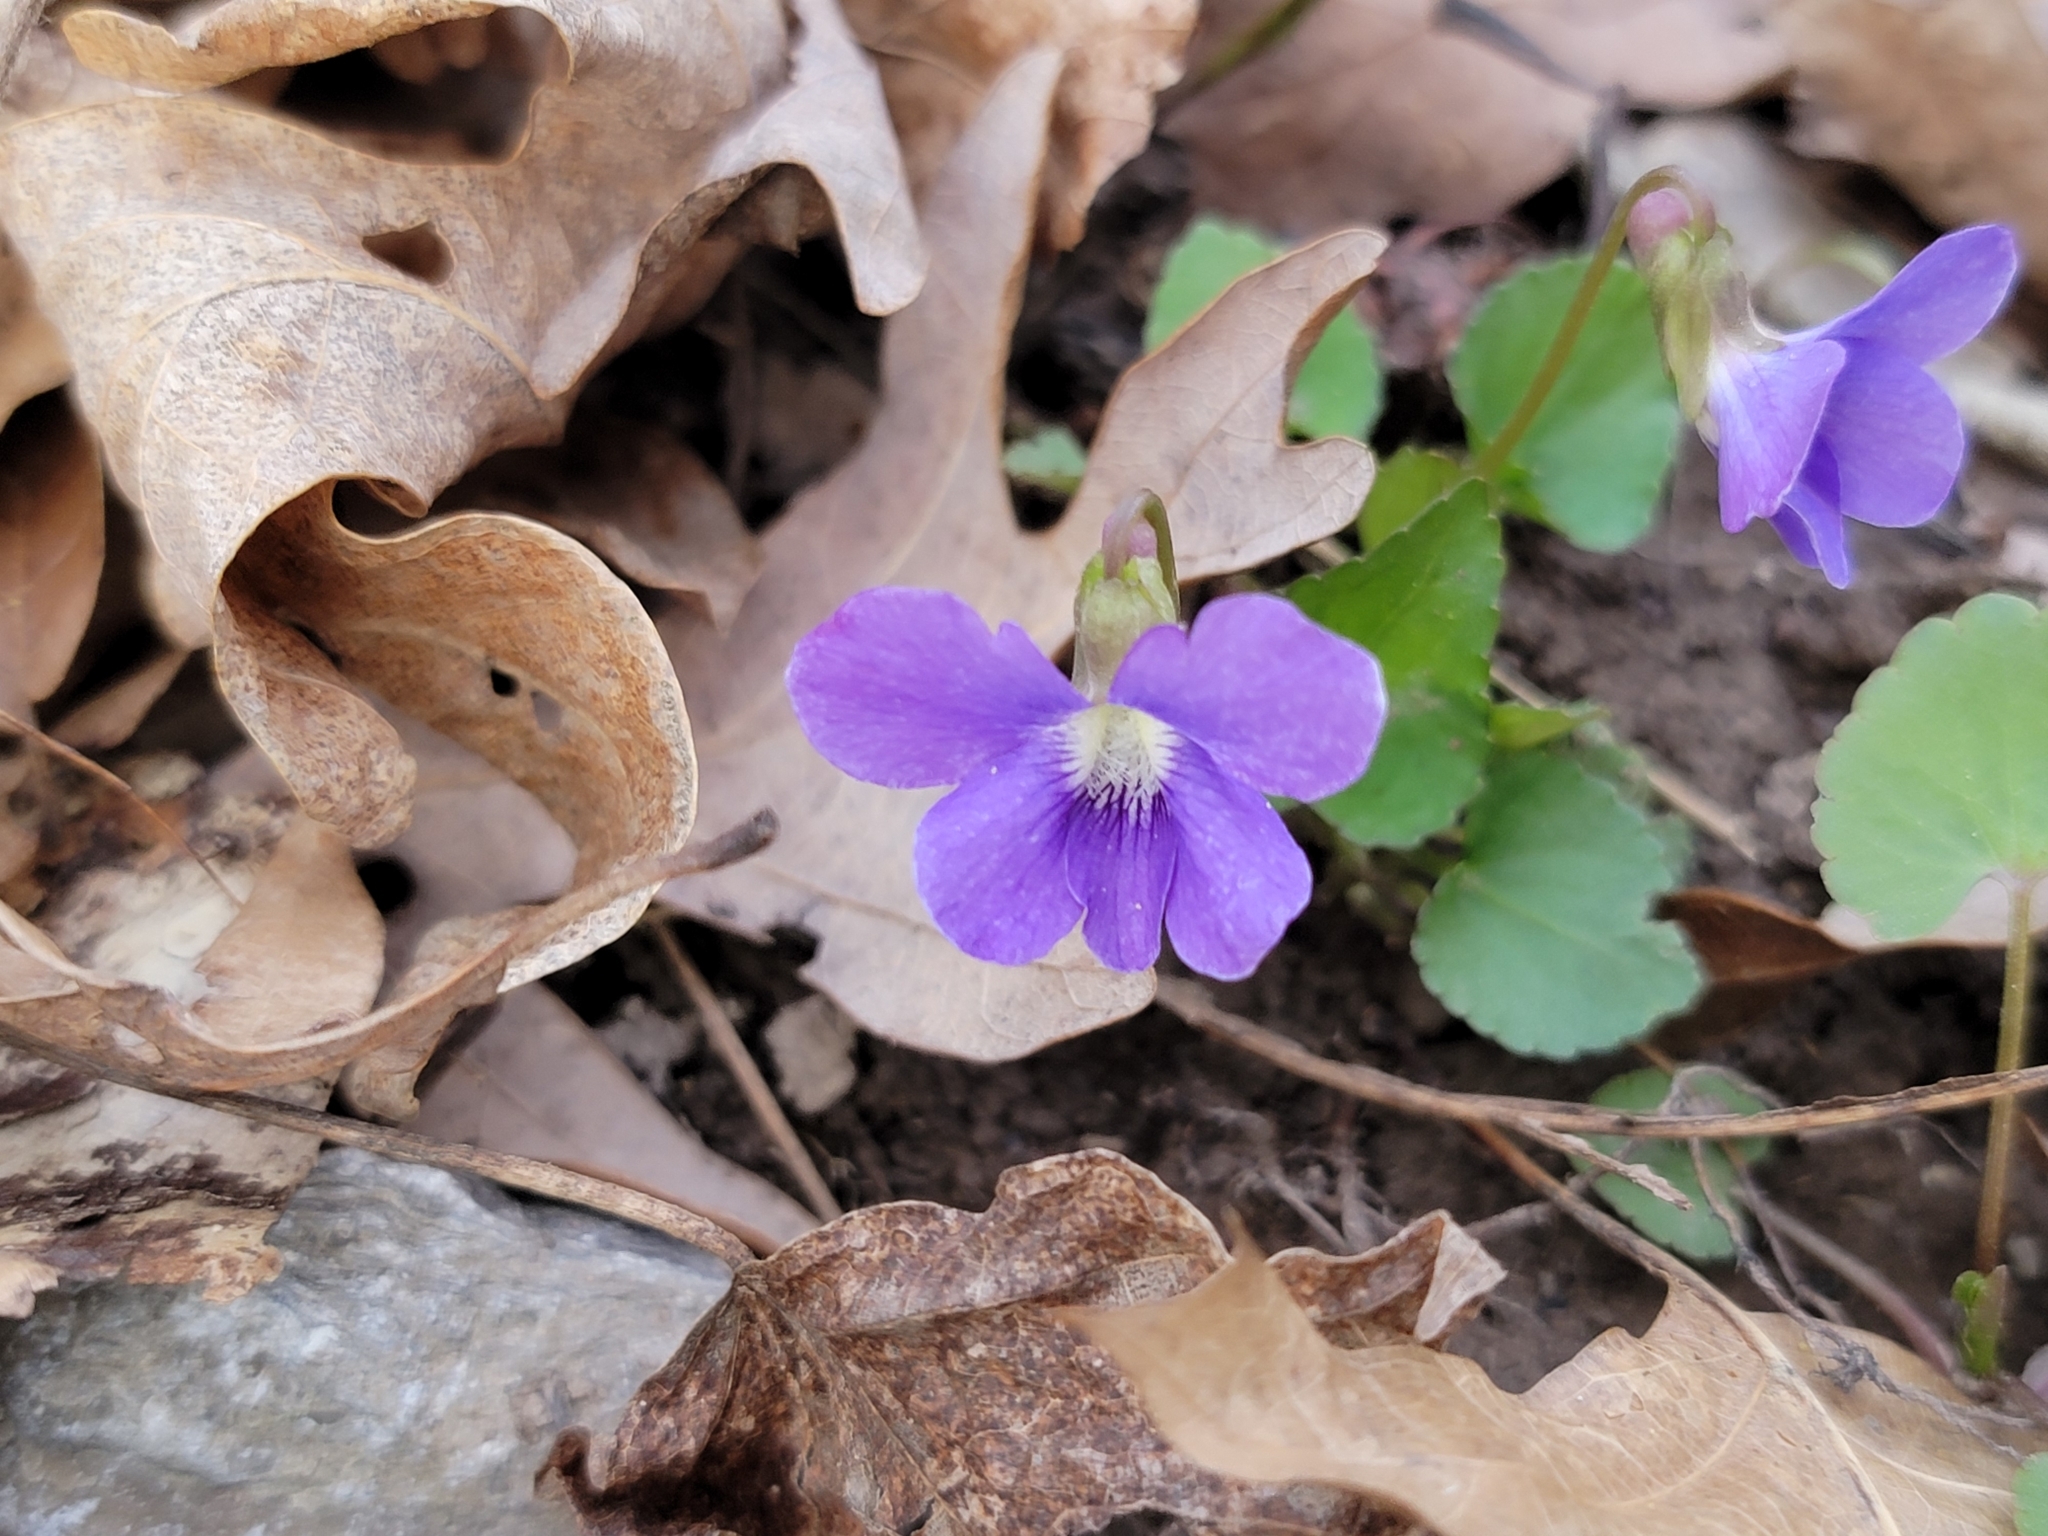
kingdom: Plantae
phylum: Tracheophyta
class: Magnoliopsida
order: Malpighiales
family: Violaceae
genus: Viola
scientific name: Viola sororia
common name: Dooryard violet
